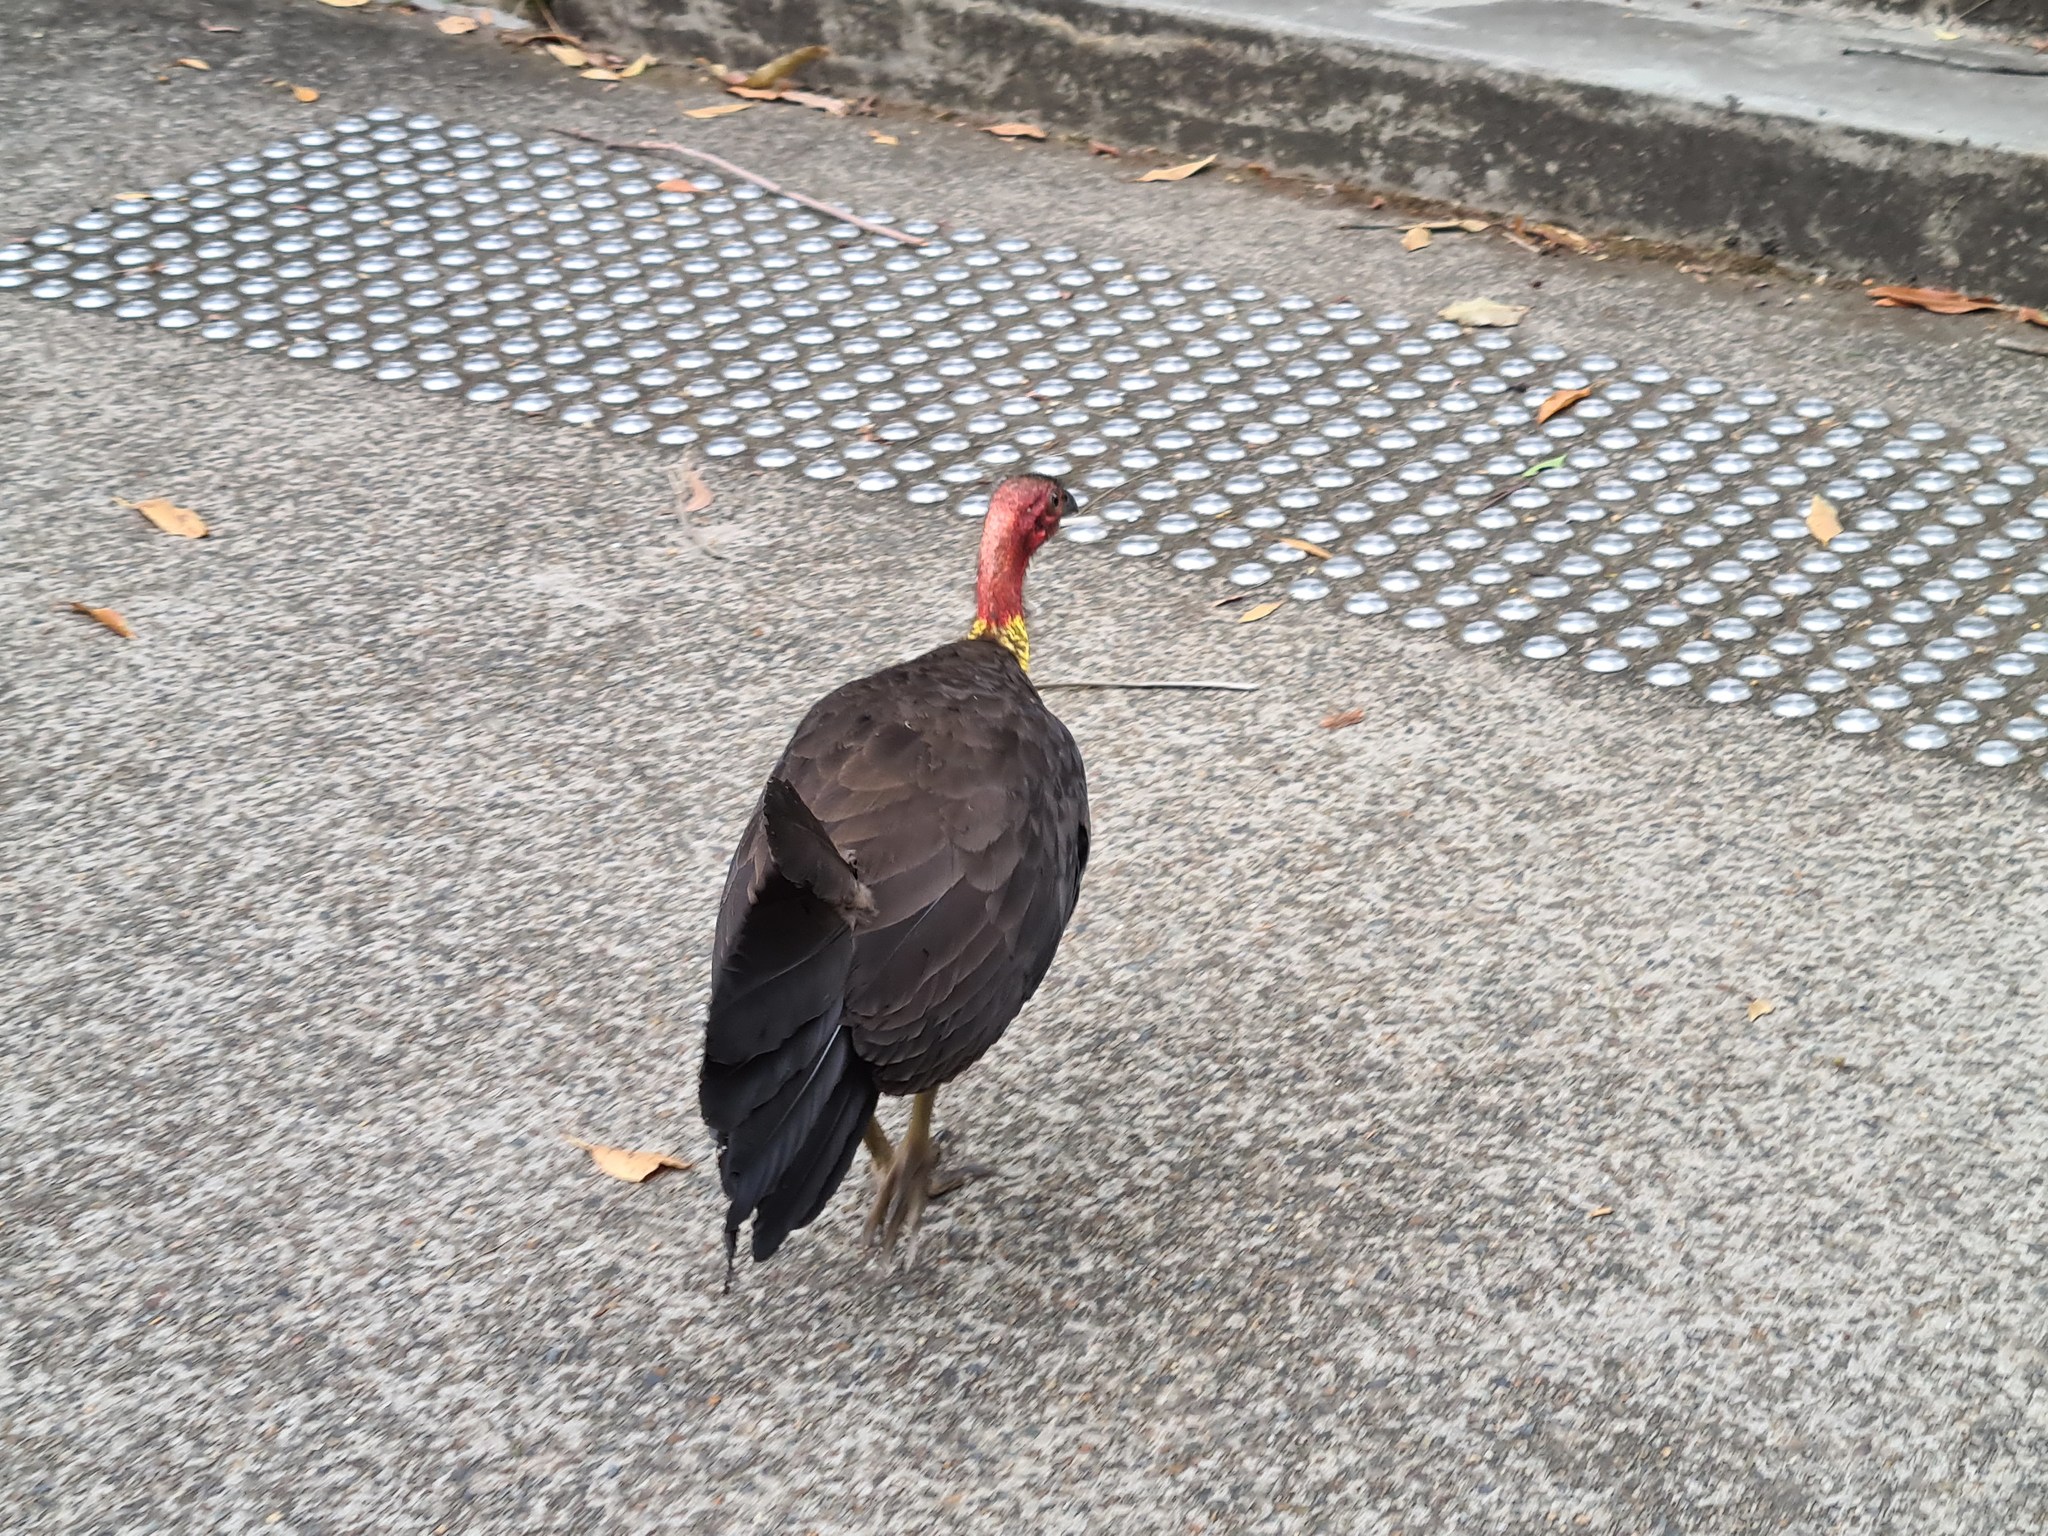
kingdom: Animalia
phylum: Chordata
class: Aves
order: Galliformes
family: Megapodiidae
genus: Alectura
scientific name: Alectura lathami
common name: Australian brushturkey
